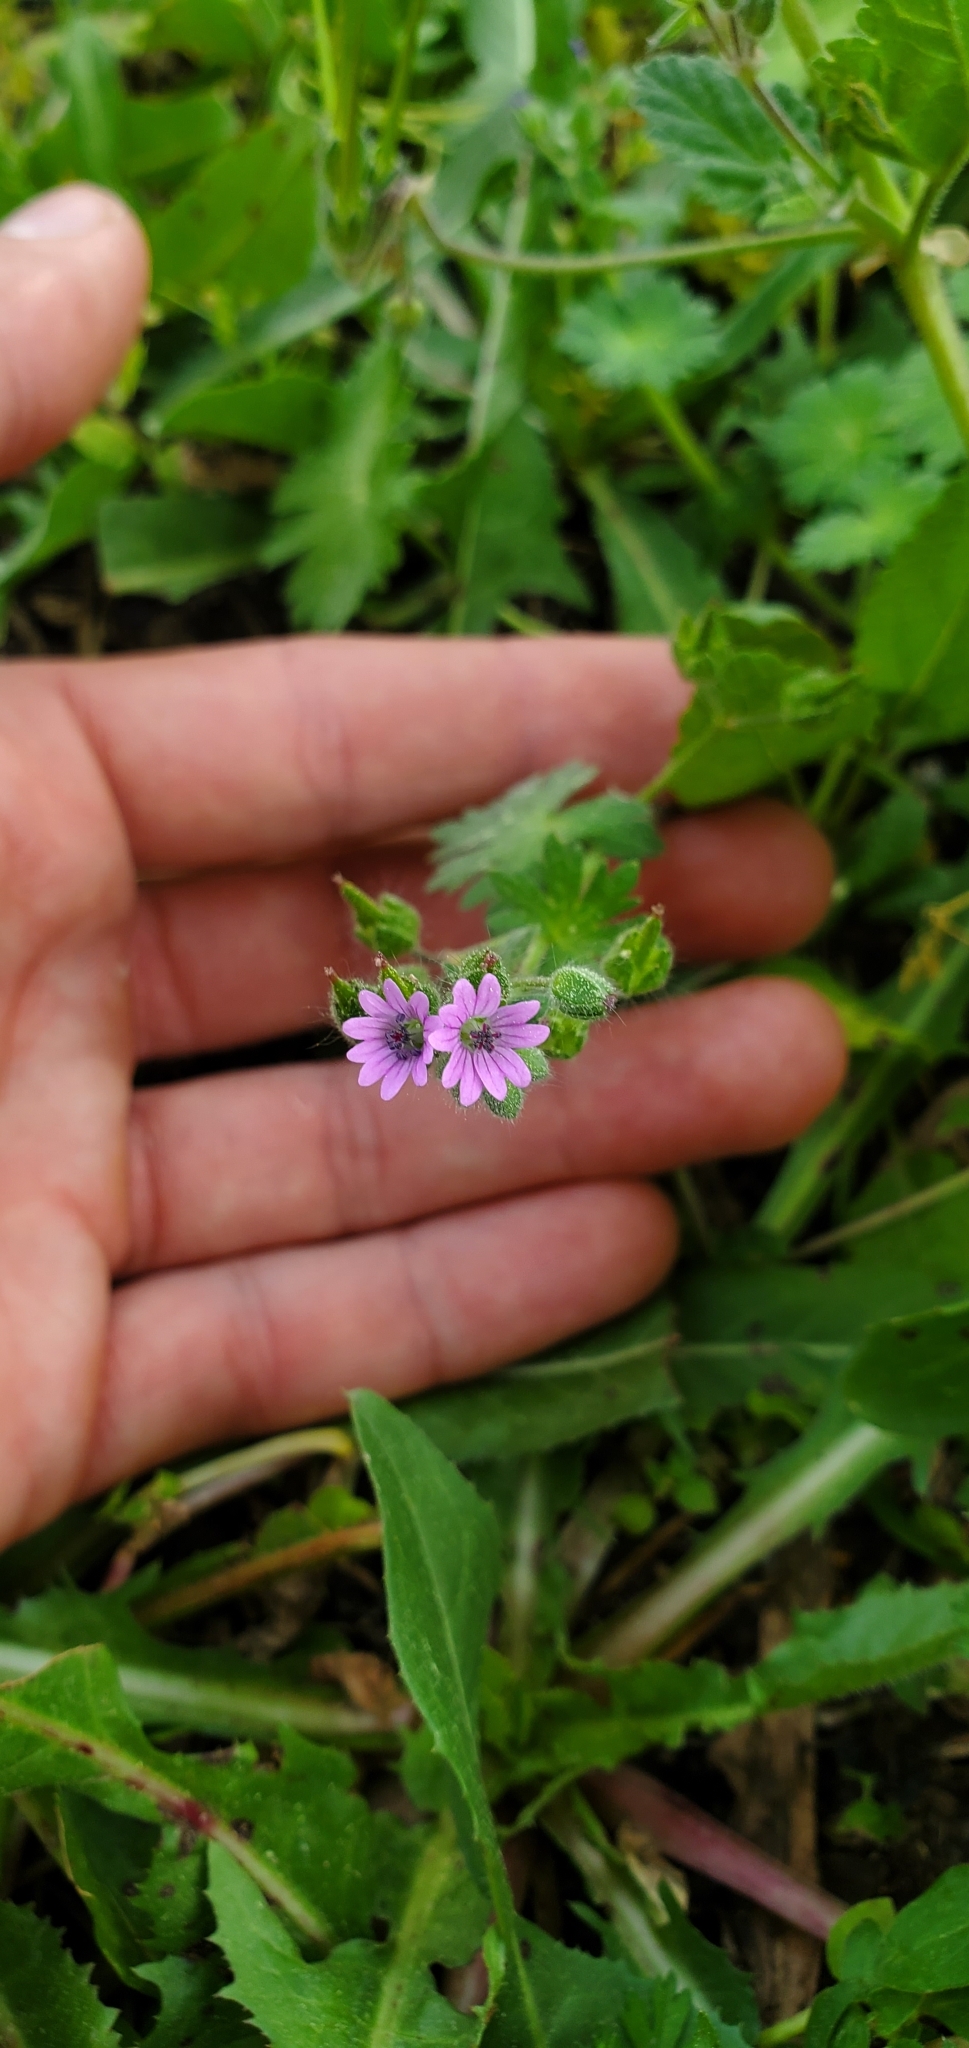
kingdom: Plantae
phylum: Tracheophyta
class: Magnoliopsida
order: Geraniales
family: Geraniaceae
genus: Geranium
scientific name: Geranium molle
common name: Dove's-foot crane's-bill
